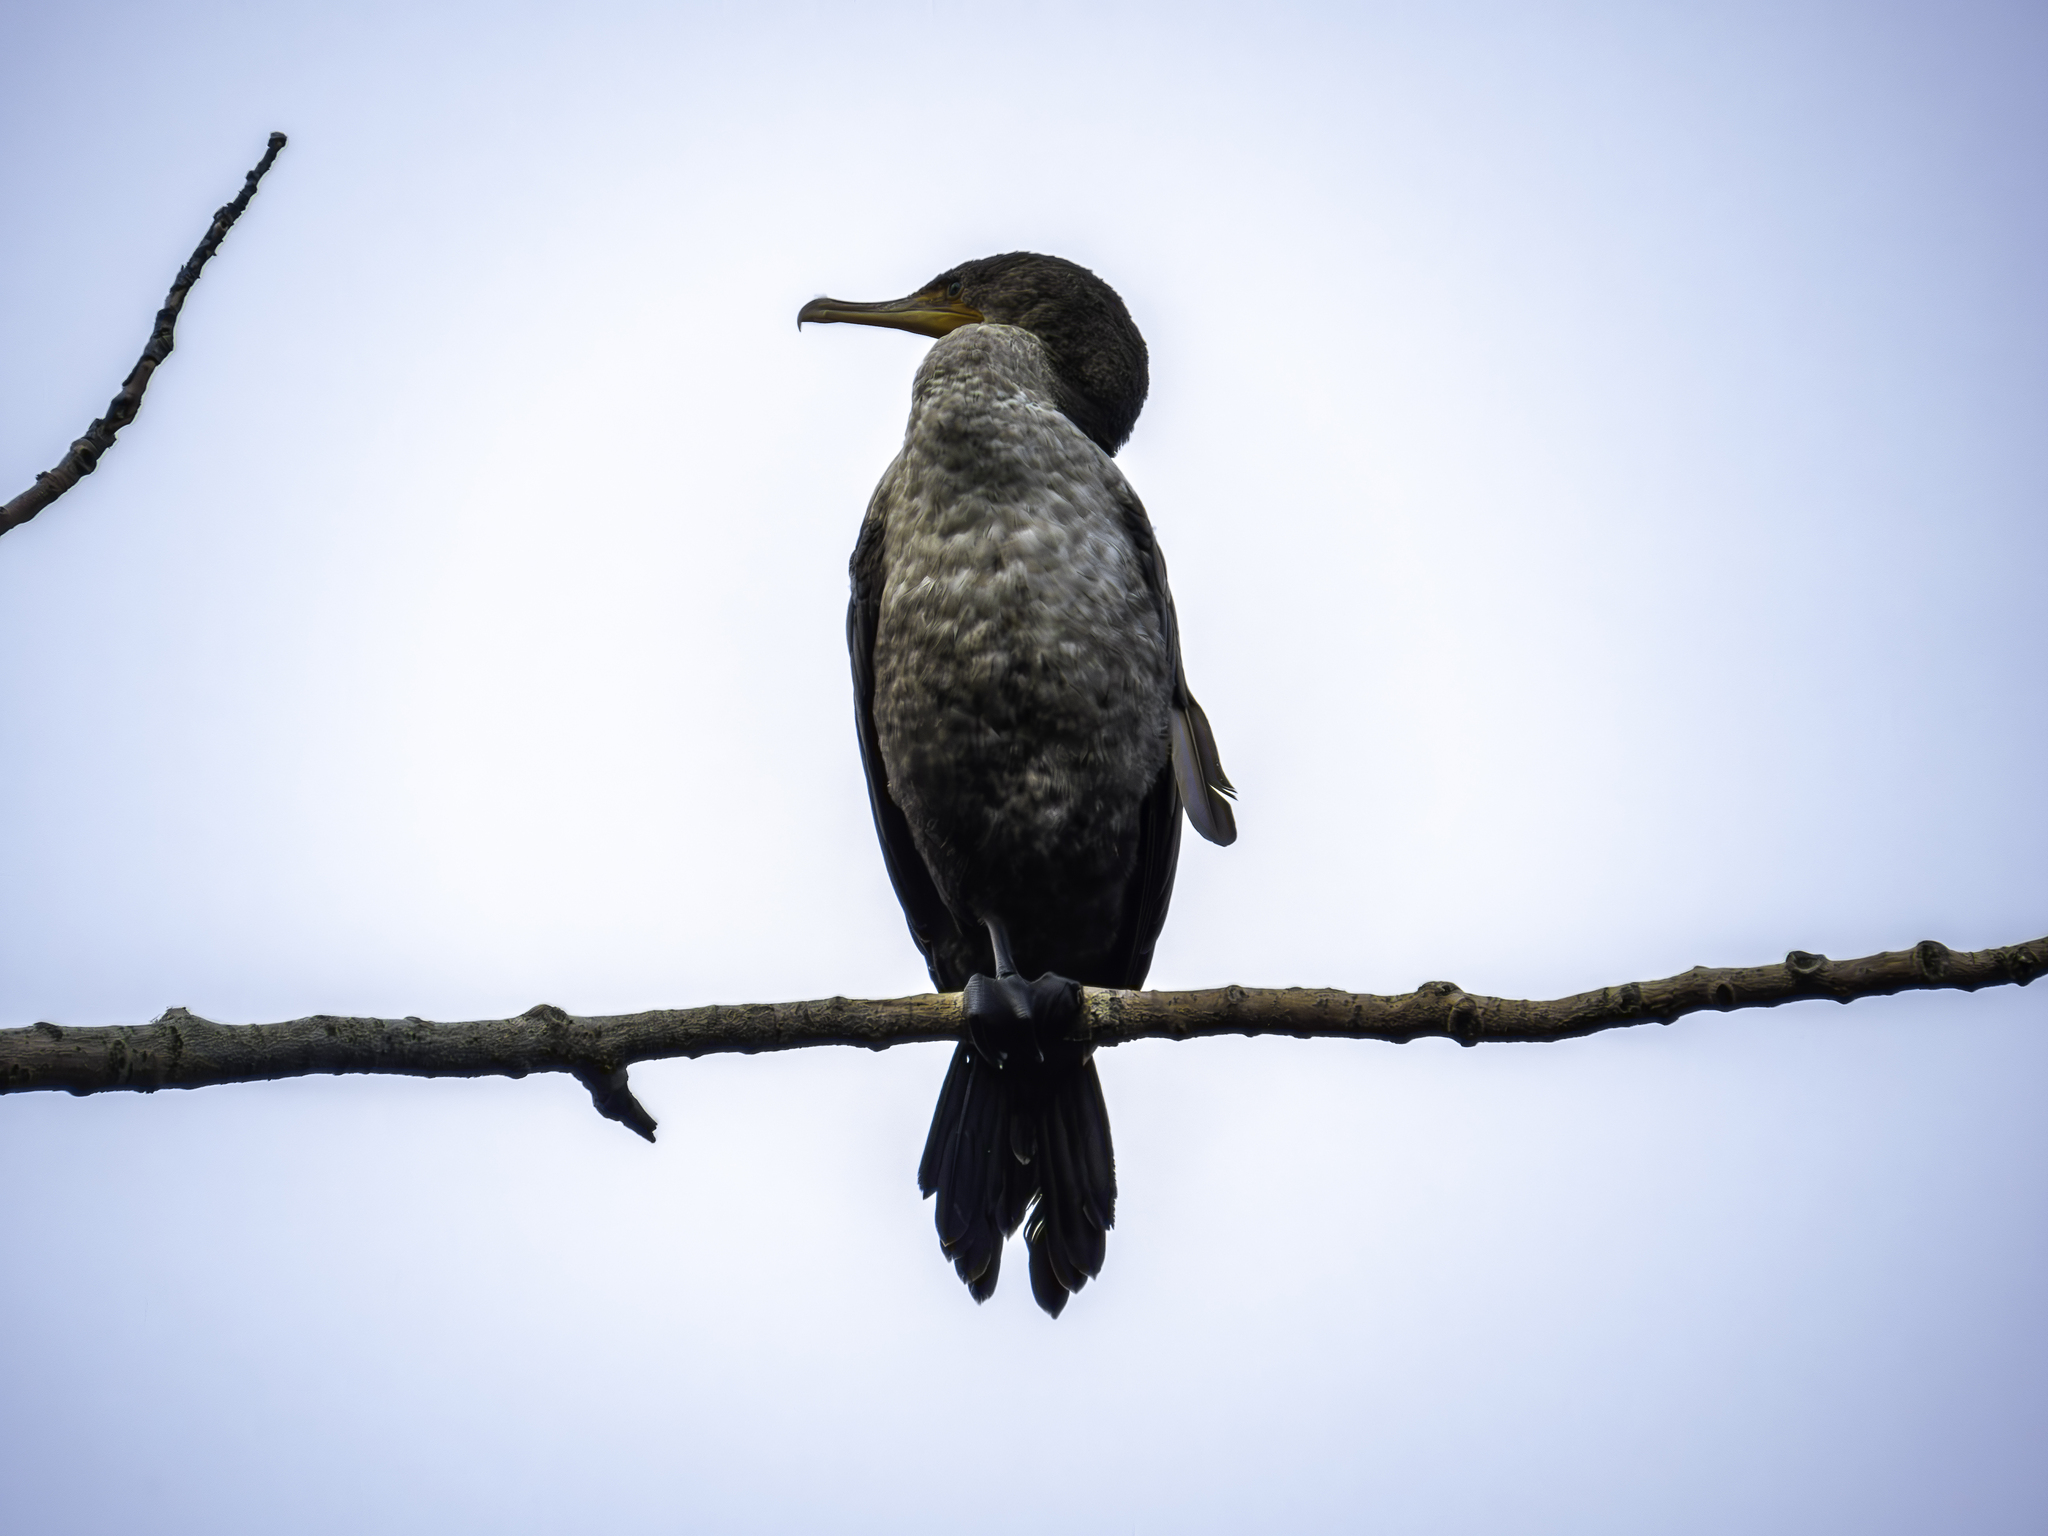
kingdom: Animalia
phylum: Chordata
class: Aves
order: Suliformes
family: Phalacrocoracidae
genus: Phalacrocorax
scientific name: Phalacrocorax auritus
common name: Double-crested cormorant
